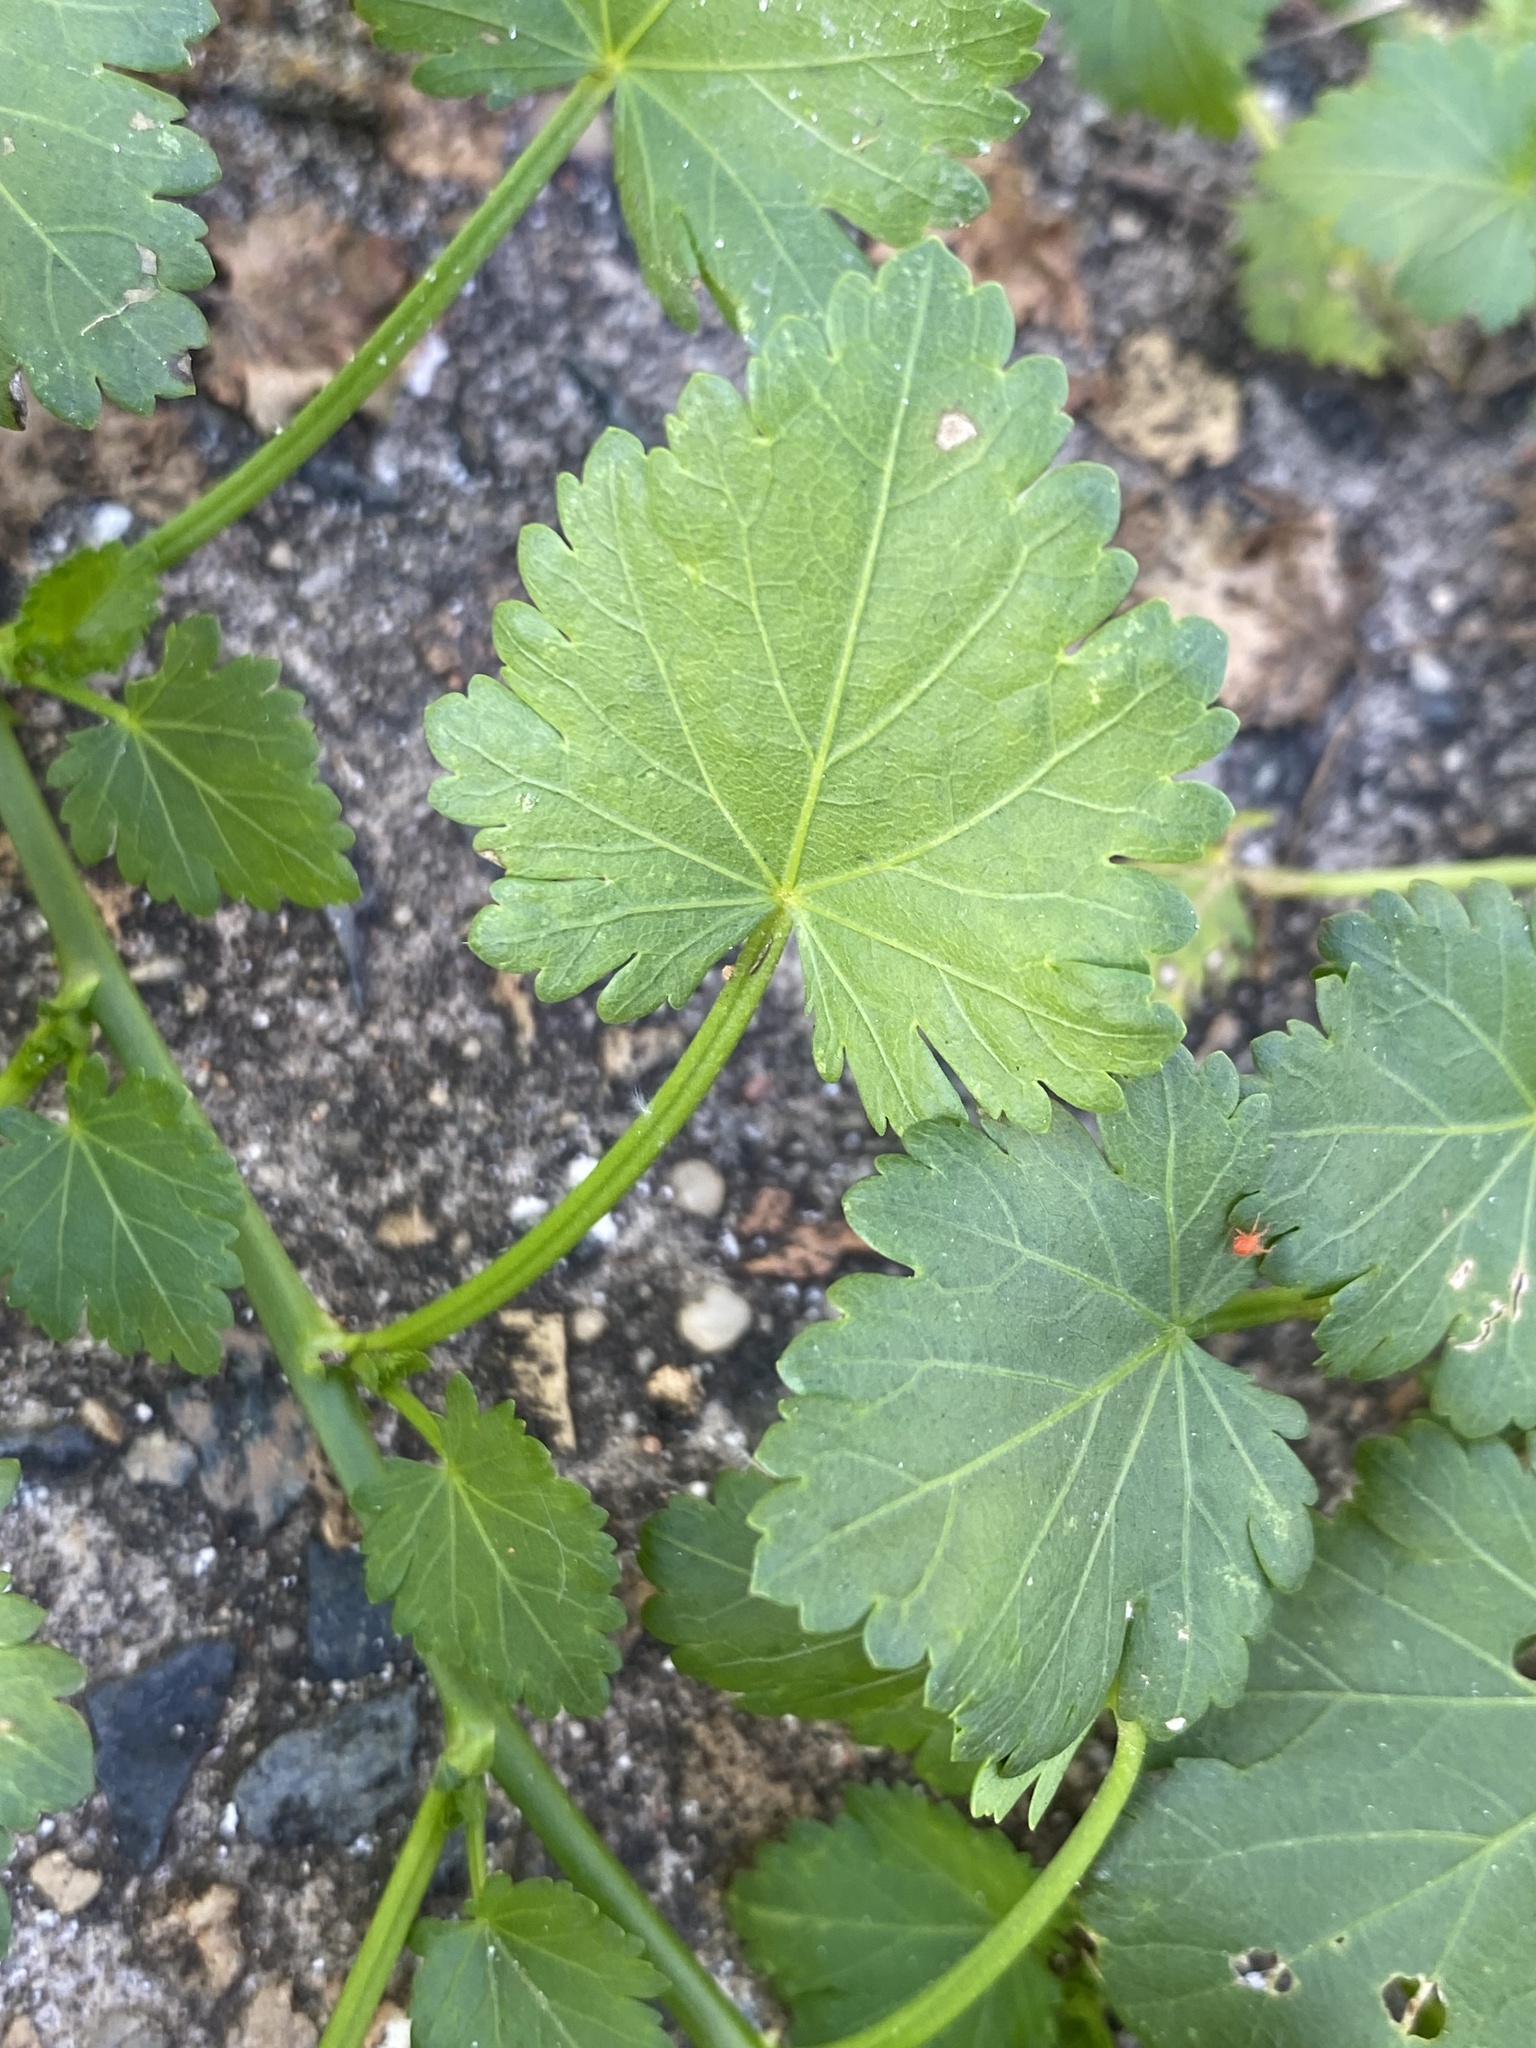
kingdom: Plantae
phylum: Tracheophyta
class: Magnoliopsida
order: Malvales
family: Malvaceae
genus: Modiola
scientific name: Modiola caroliniana
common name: Carolina bristlemallow
